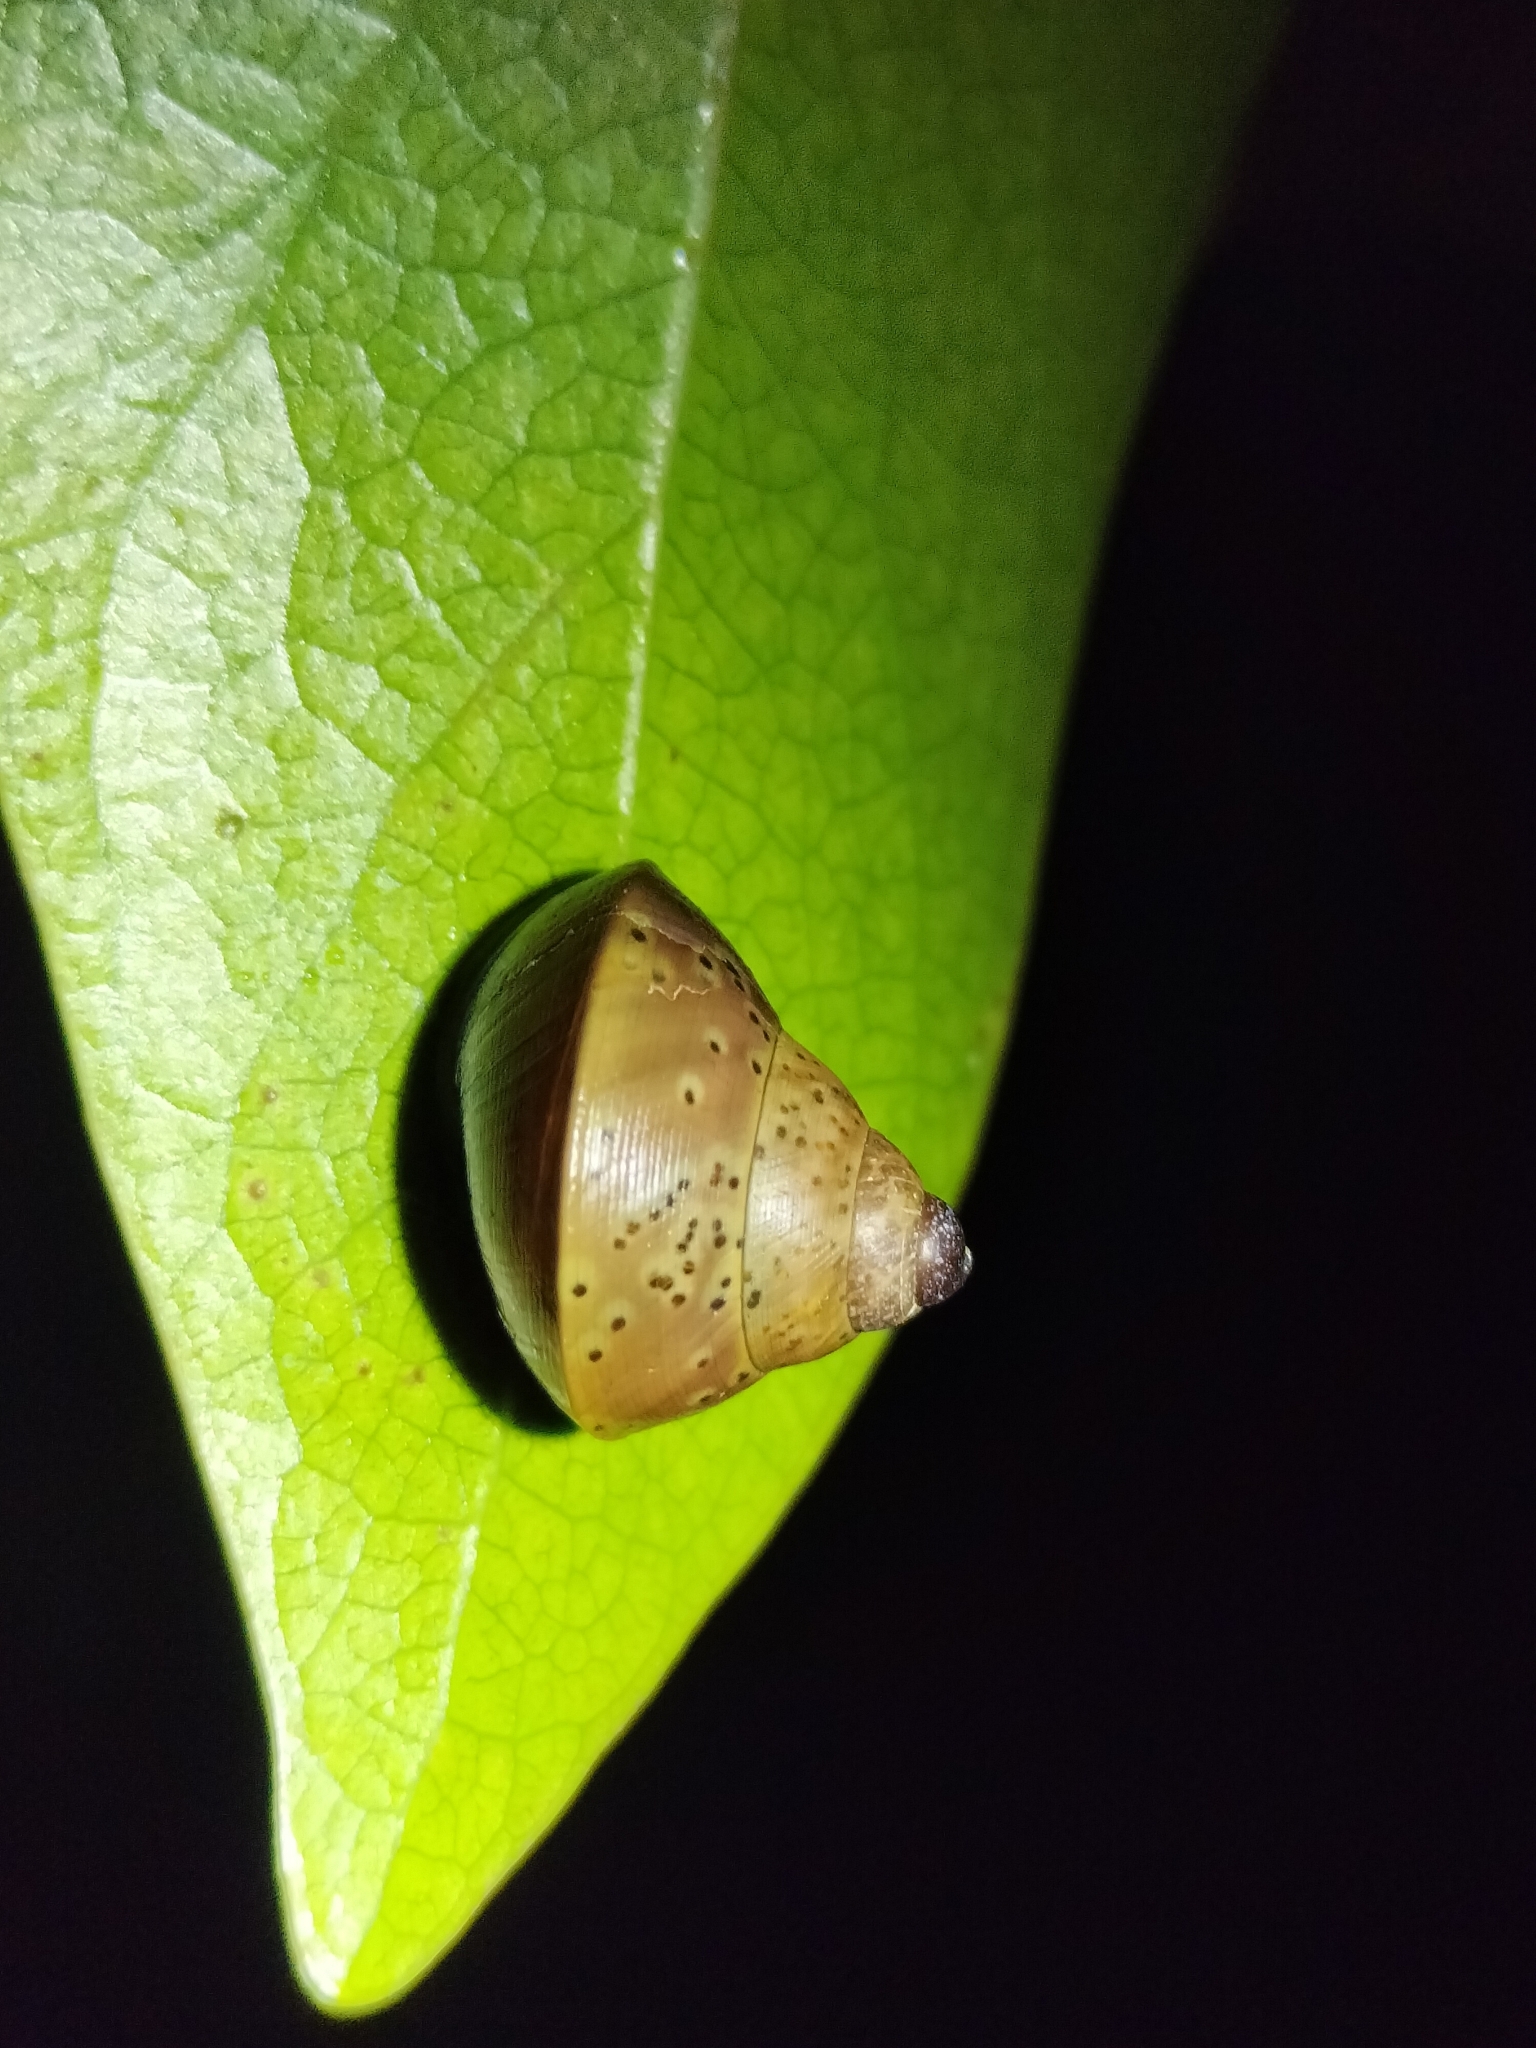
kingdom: Animalia
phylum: Mollusca
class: Gastropoda
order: Stylommatophora
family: Camaenidae
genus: Rhynchotrochus
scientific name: Rhynchotrochus macgillivrayi
